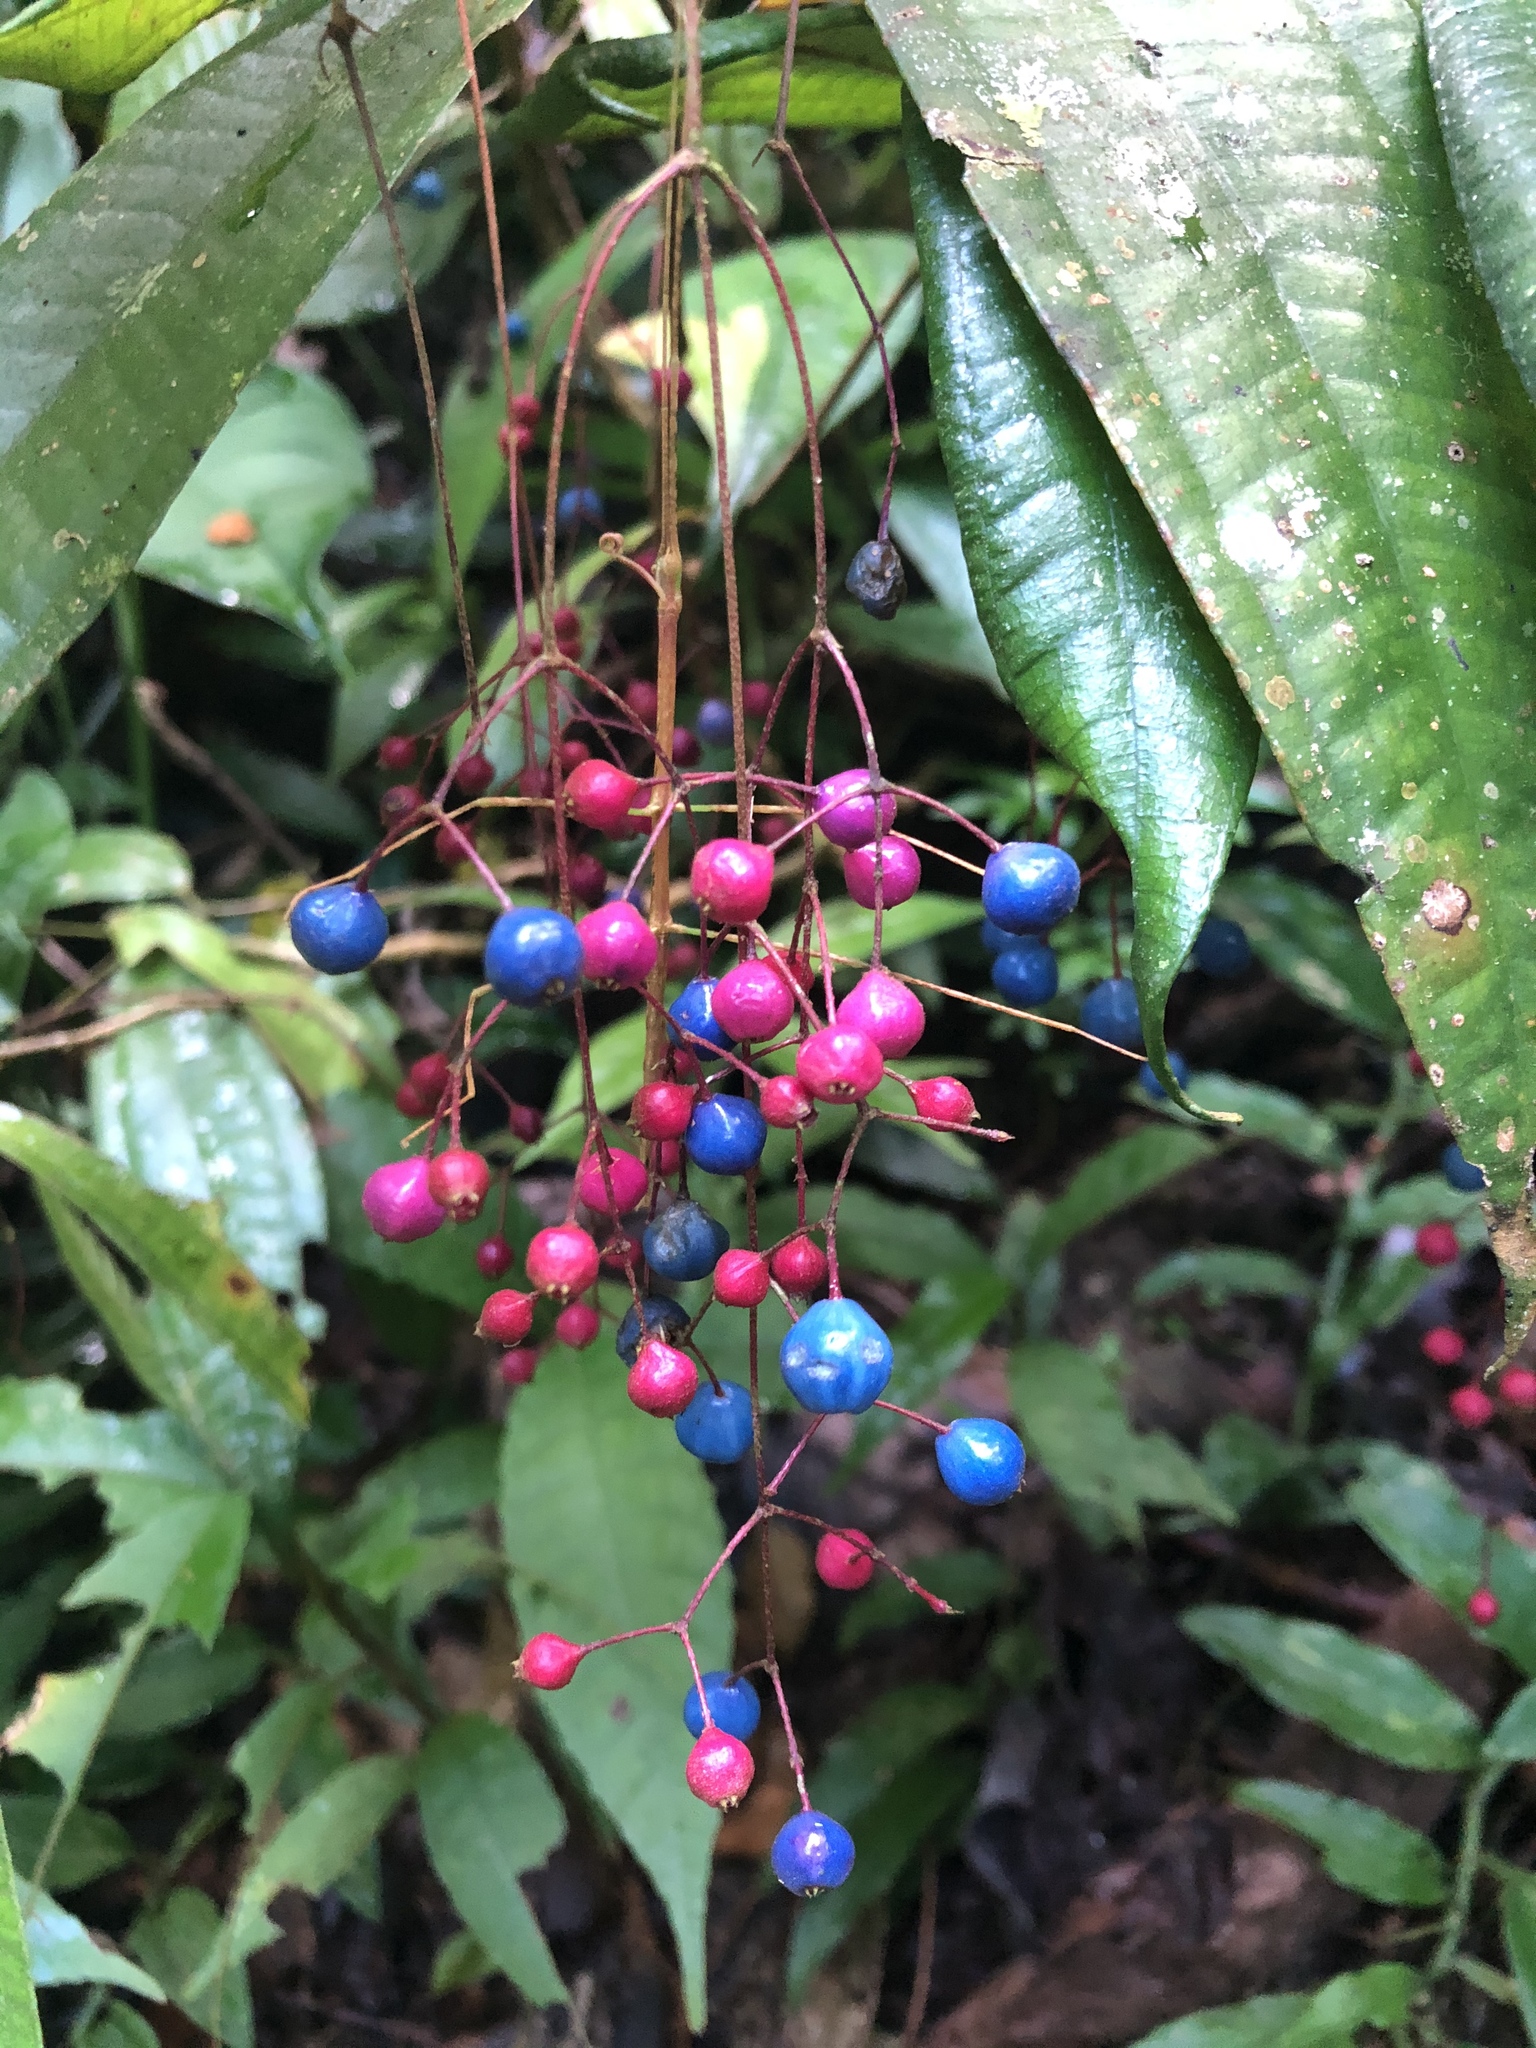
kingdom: Plantae
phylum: Tracheophyta
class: Magnoliopsida
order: Myrtales
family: Melastomataceae
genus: Miconia
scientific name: Miconia pseudoalternifolia
